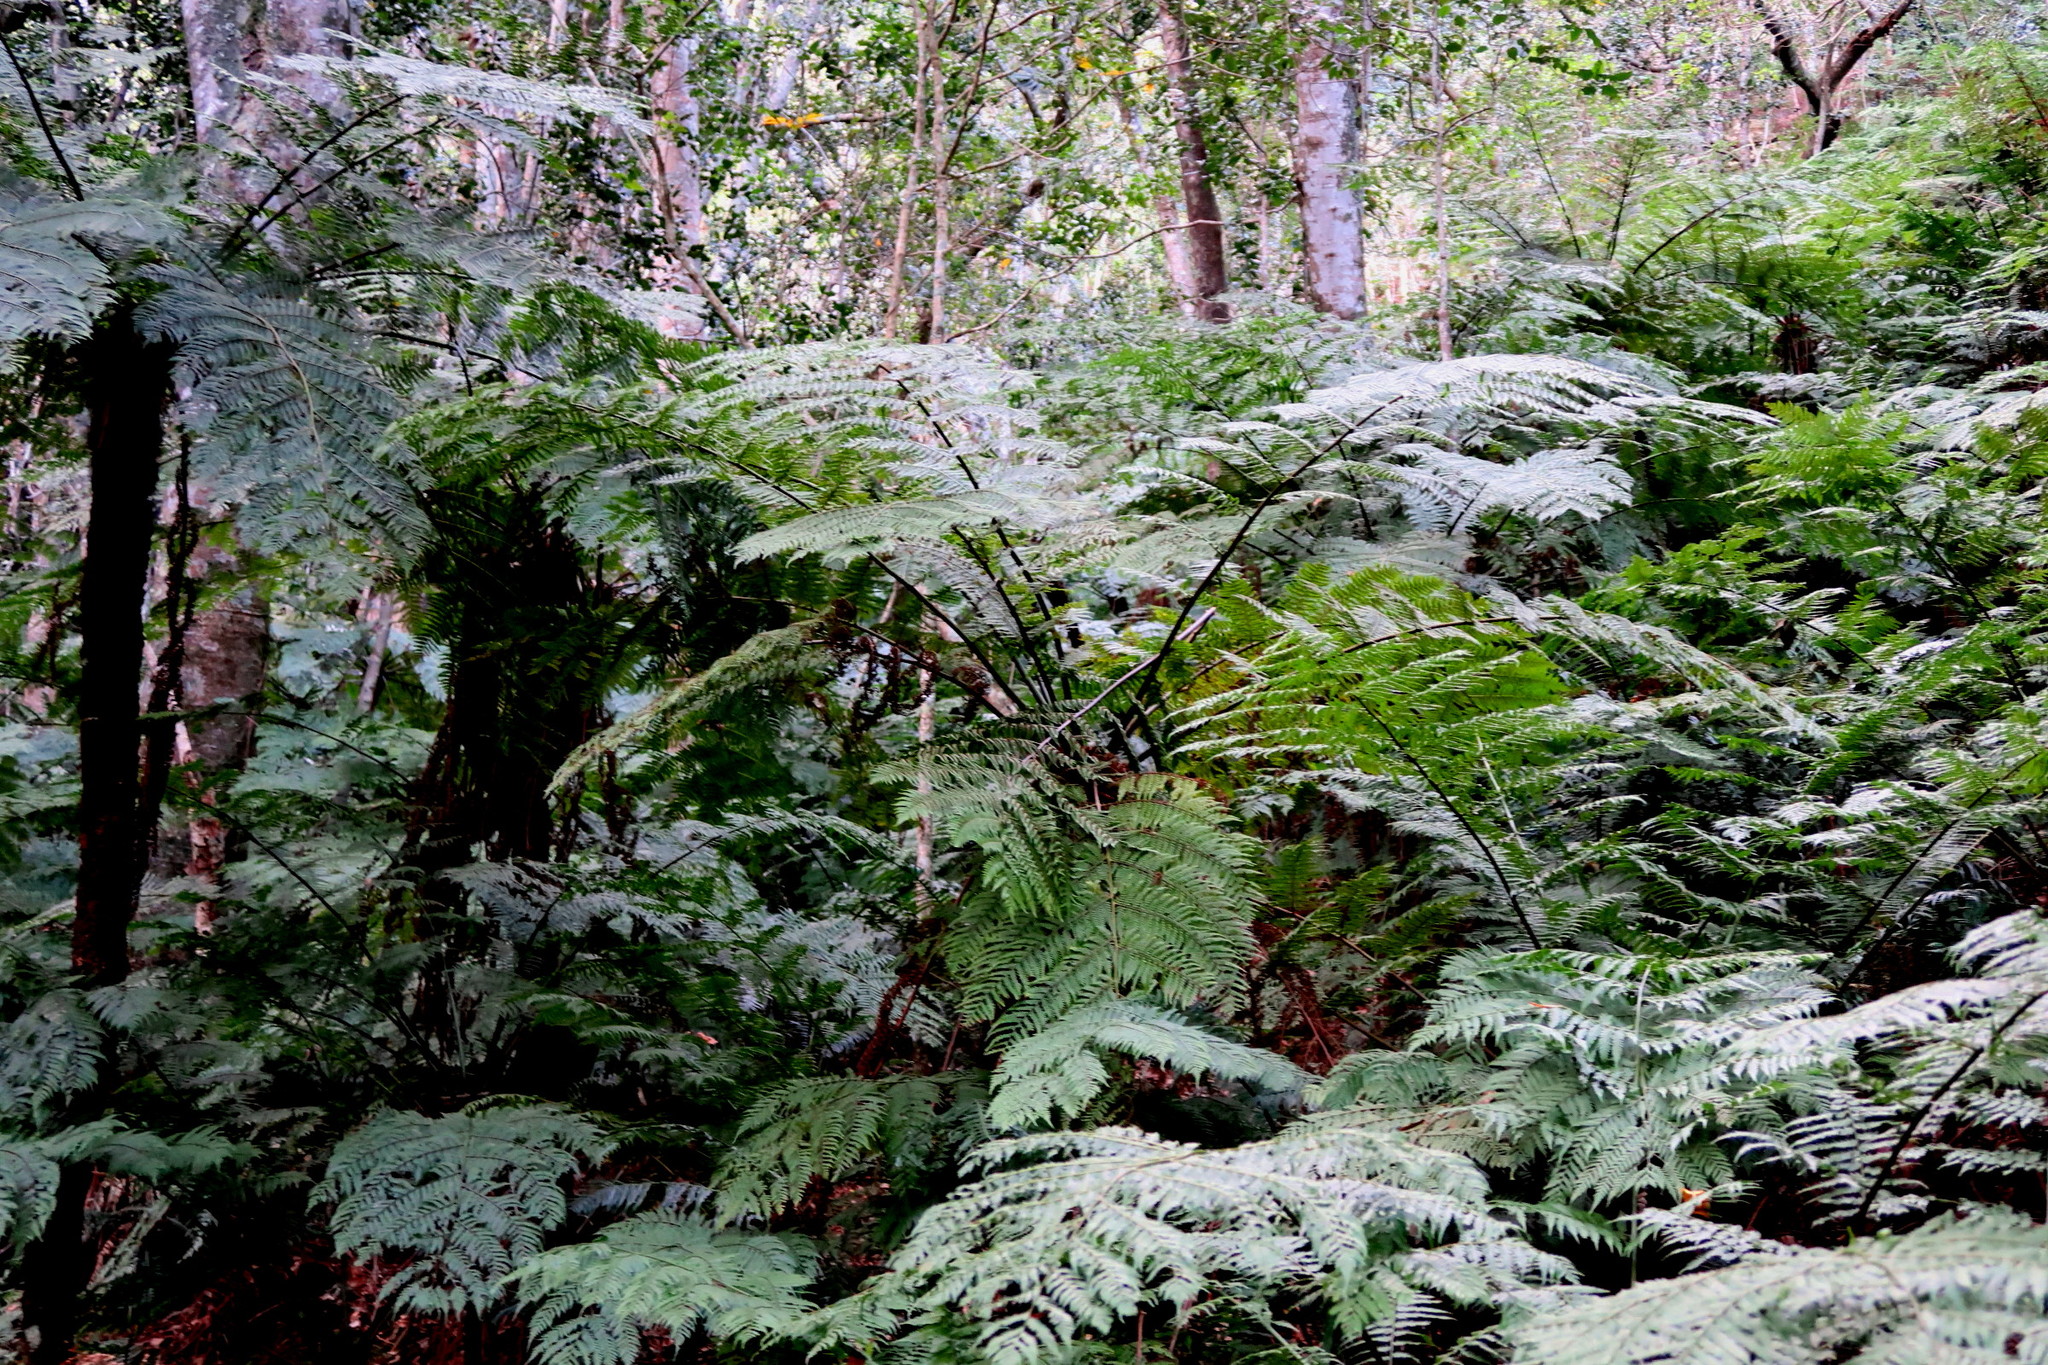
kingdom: Plantae
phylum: Tracheophyta
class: Polypodiopsida
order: Cyatheales
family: Cyatheaceae
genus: Gymnosphaera
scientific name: Gymnosphaera capensis
